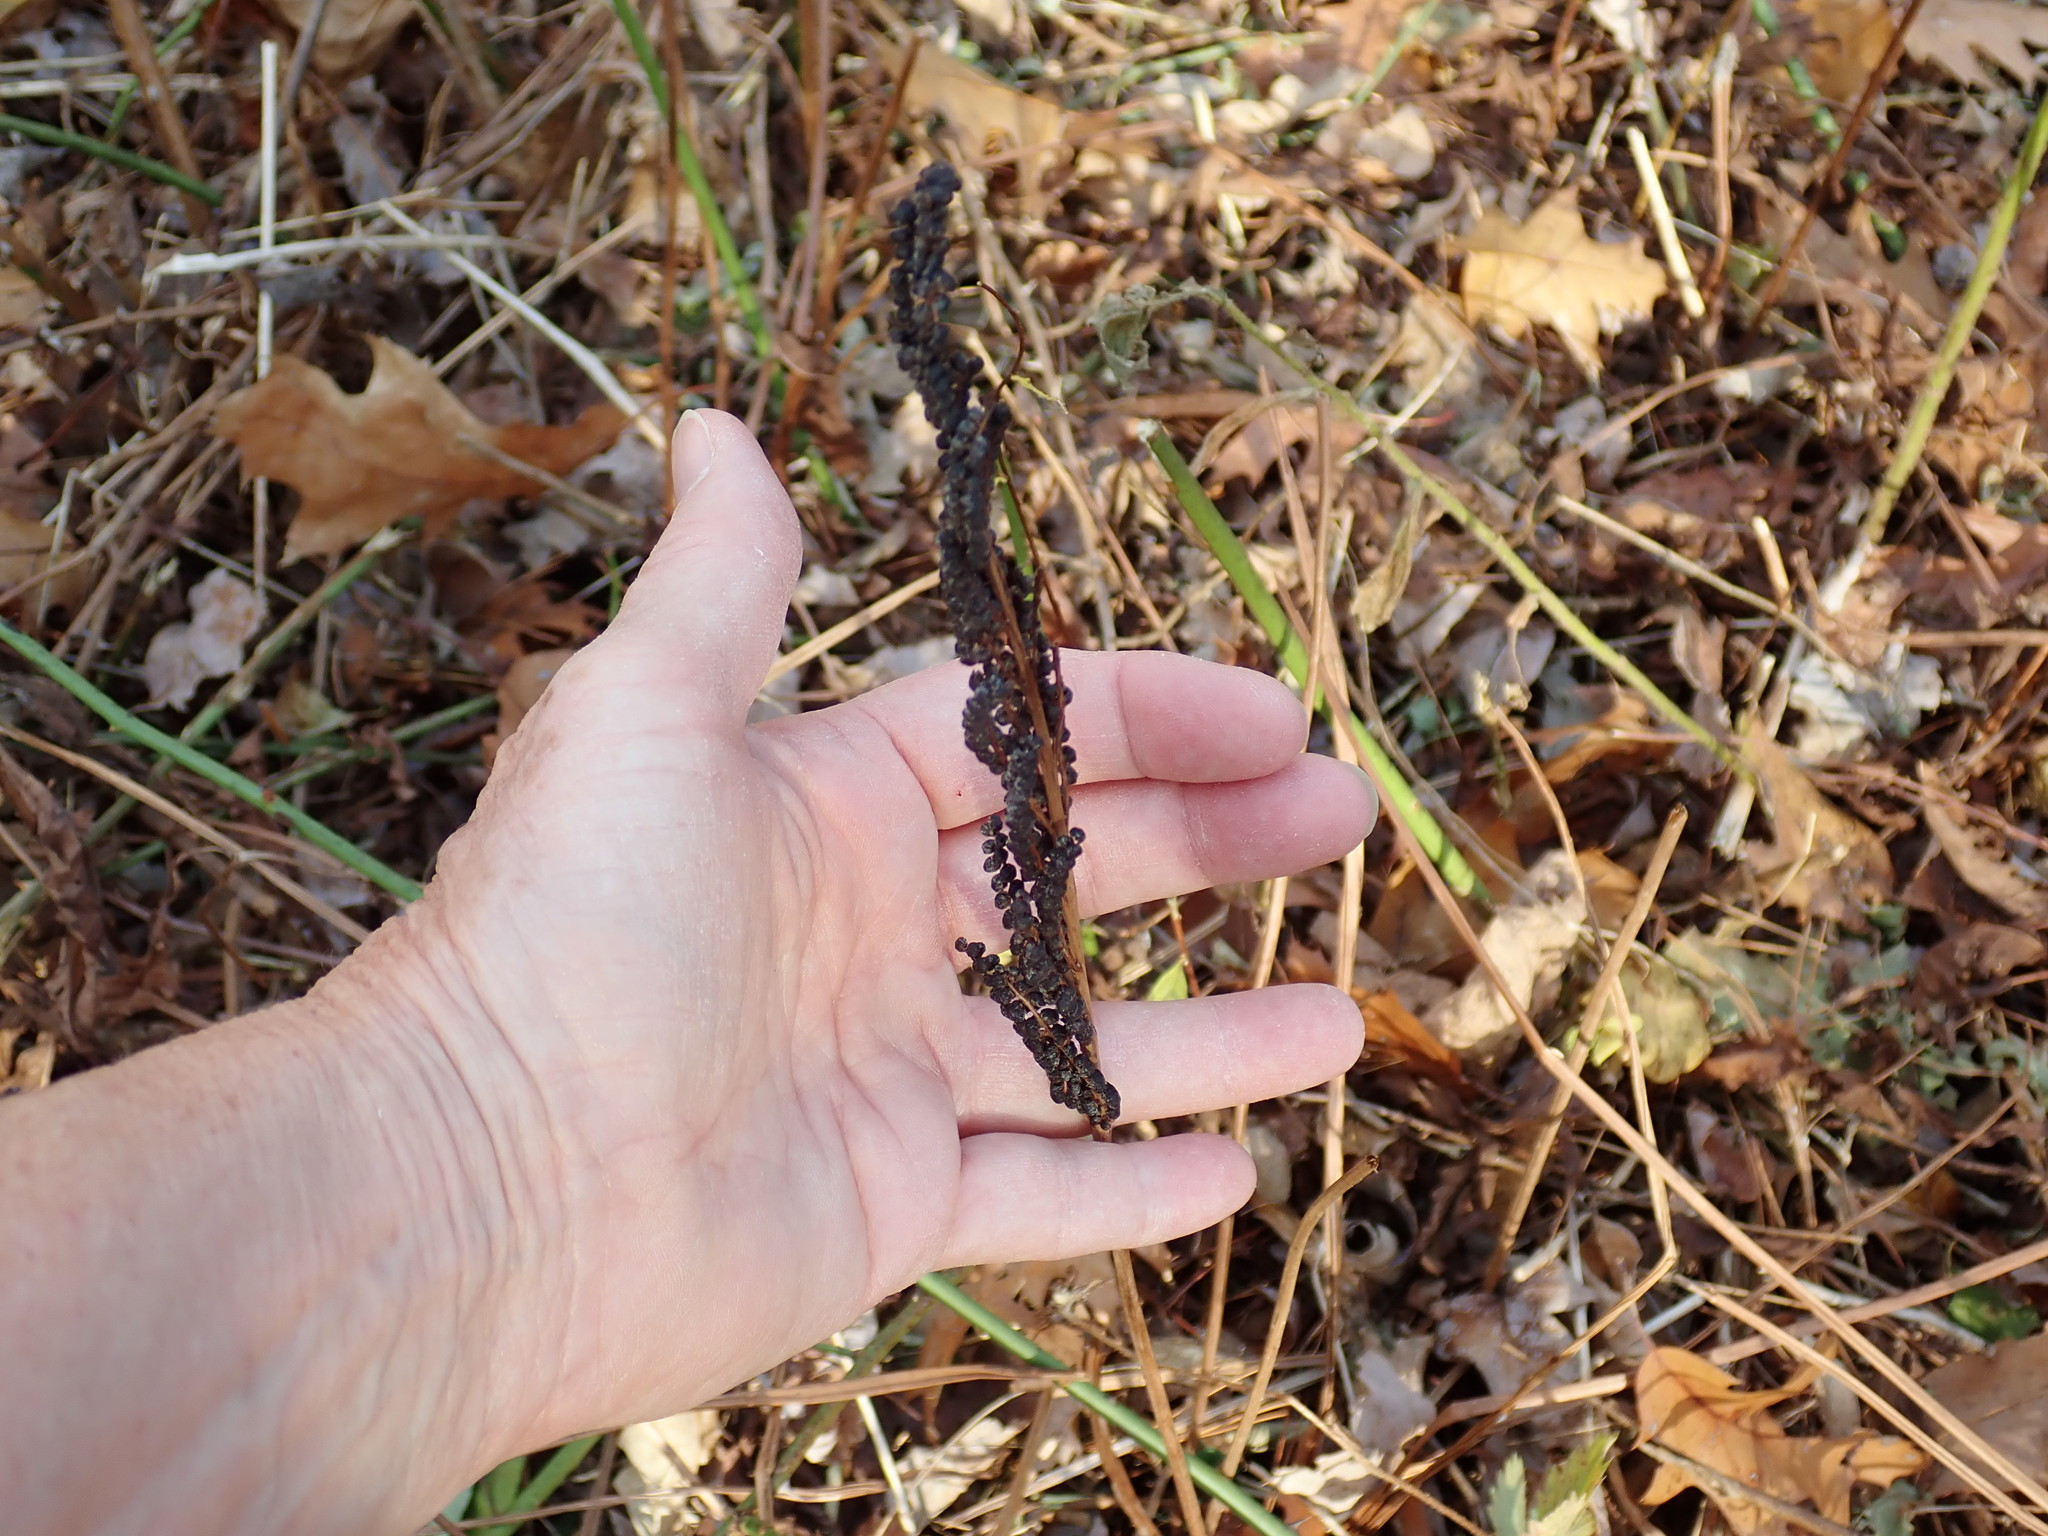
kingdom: Plantae
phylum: Tracheophyta
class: Polypodiopsida
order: Polypodiales
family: Onocleaceae
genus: Onoclea
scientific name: Onoclea sensibilis
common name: Sensitive fern
